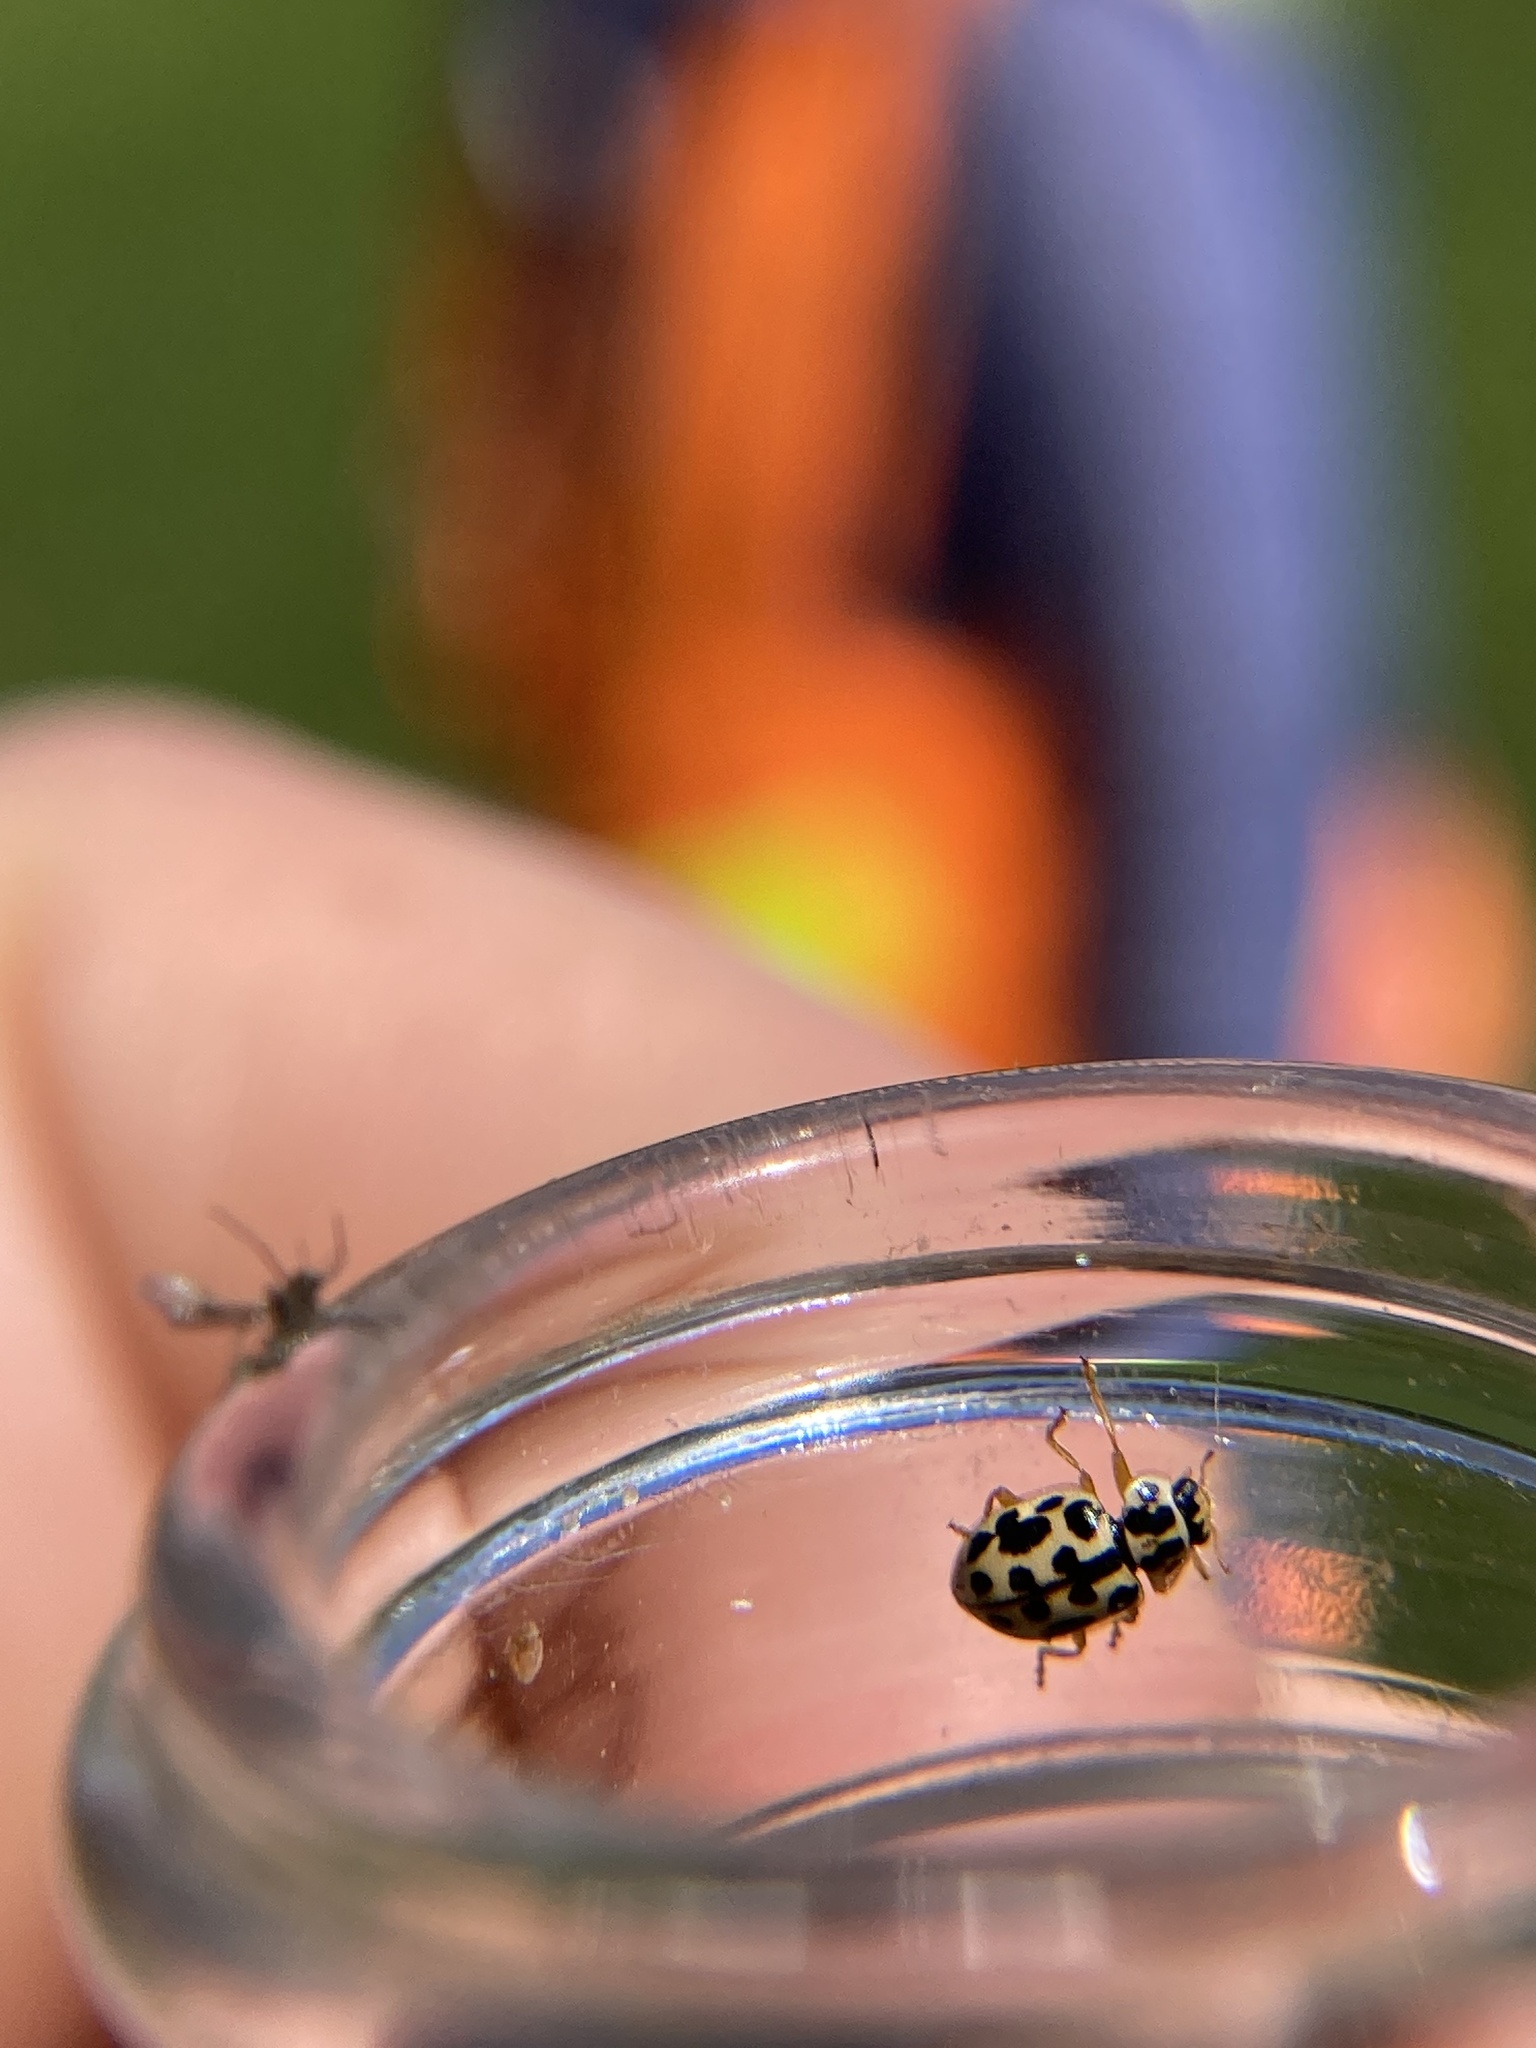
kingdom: Animalia
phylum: Arthropoda
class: Insecta
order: Coleoptera
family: Coccinellidae
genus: Anisosticta
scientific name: Anisosticta bitriangularis
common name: Marsh lady beetle
